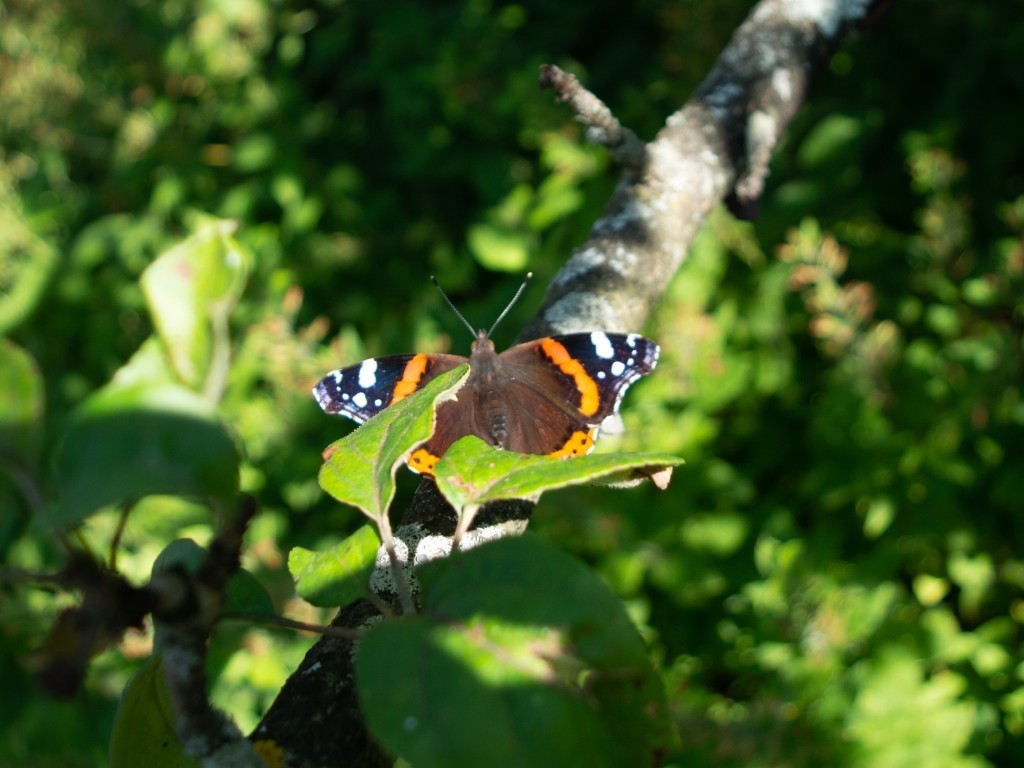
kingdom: Animalia
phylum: Arthropoda
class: Insecta
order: Lepidoptera
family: Nymphalidae
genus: Vanessa
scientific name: Vanessa atalanta
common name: Red admiral
